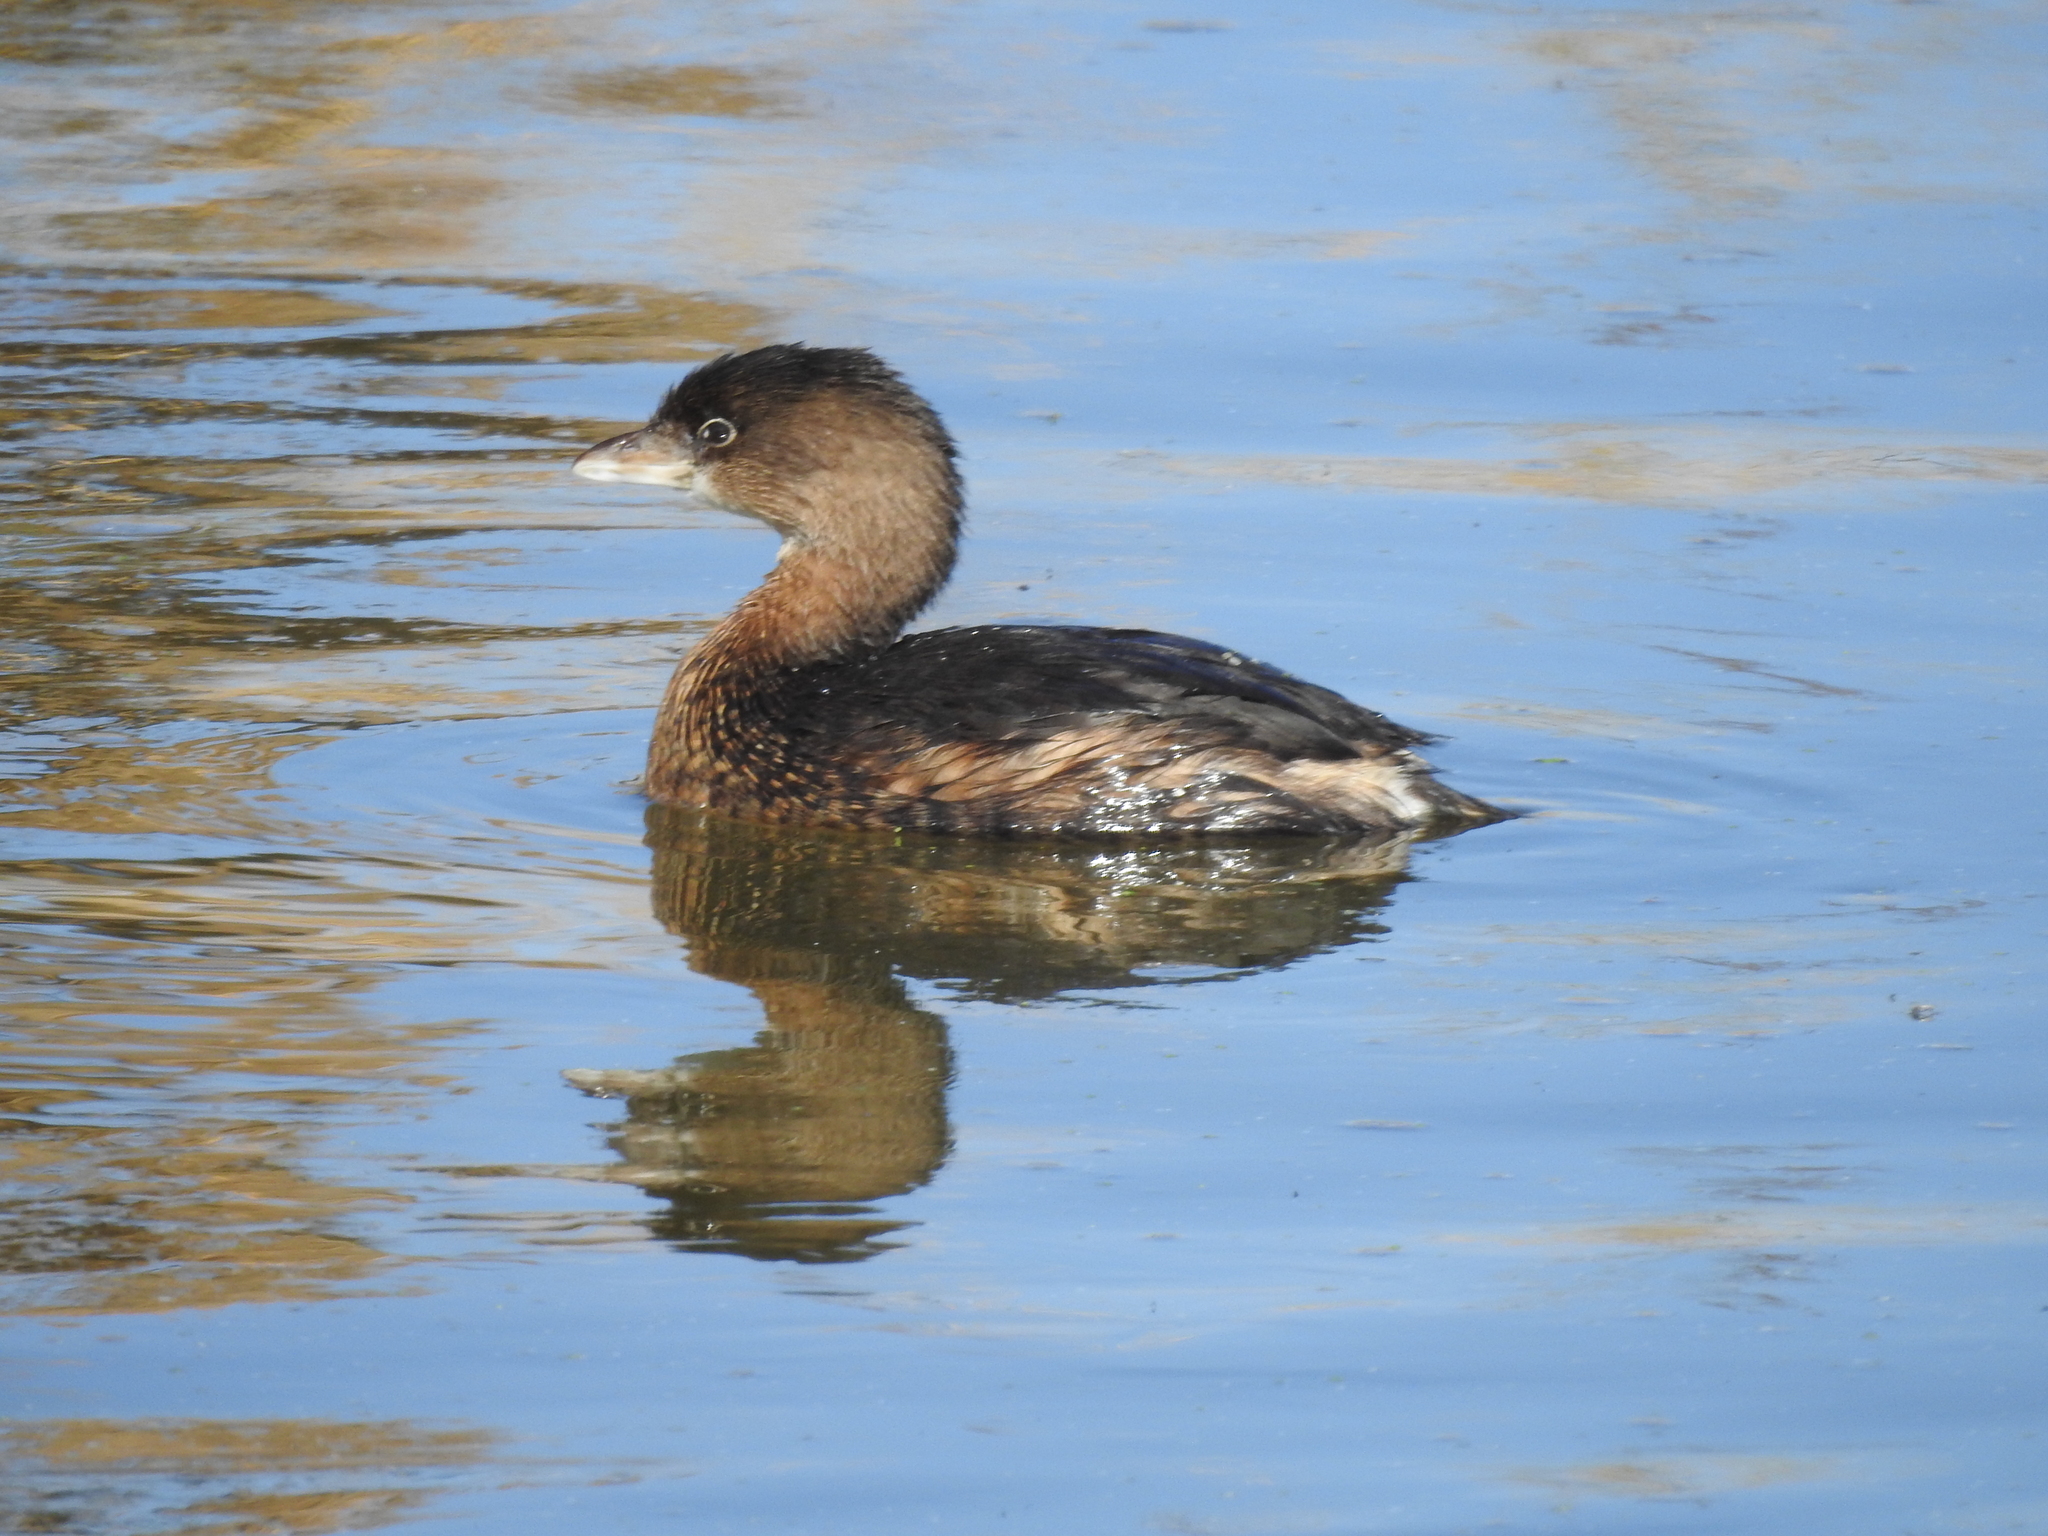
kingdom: Animalia
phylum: Chordata
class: Aves
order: Podicipediformes
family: Podicipedidae
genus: Podilymbus
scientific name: Podilymbus podiceps
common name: Pied-billed grebe
